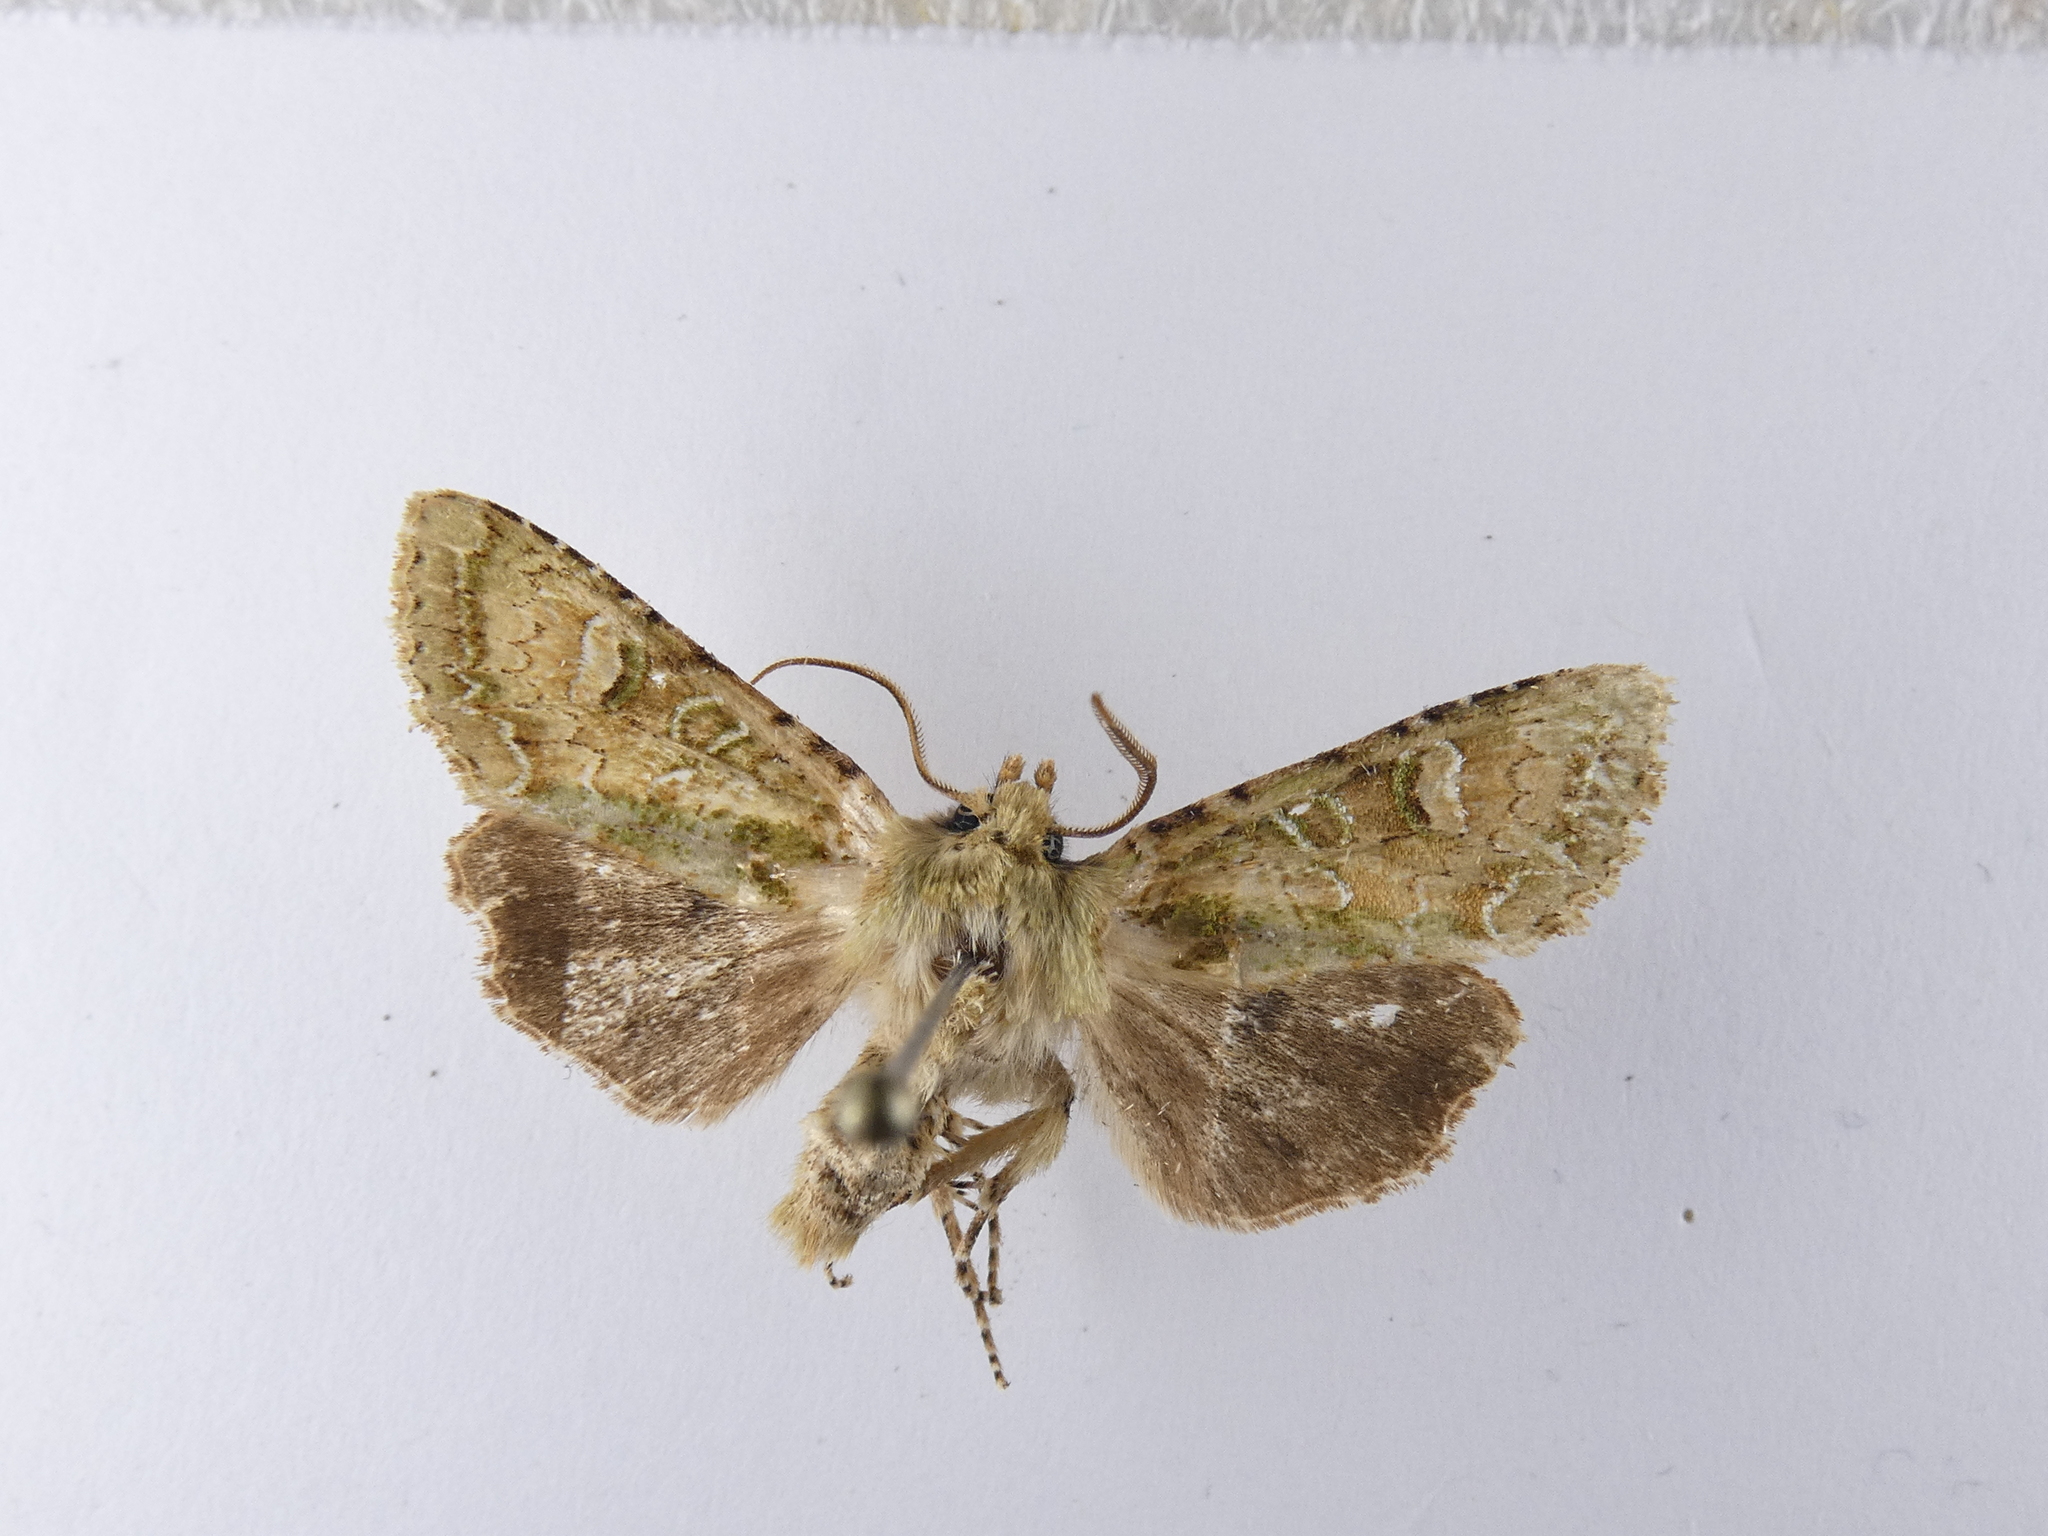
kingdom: Animalia
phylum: Arthropoda
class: Insecta
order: Lepidoptera
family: Noctuidae
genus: Ichneutica
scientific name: Ichneutica
